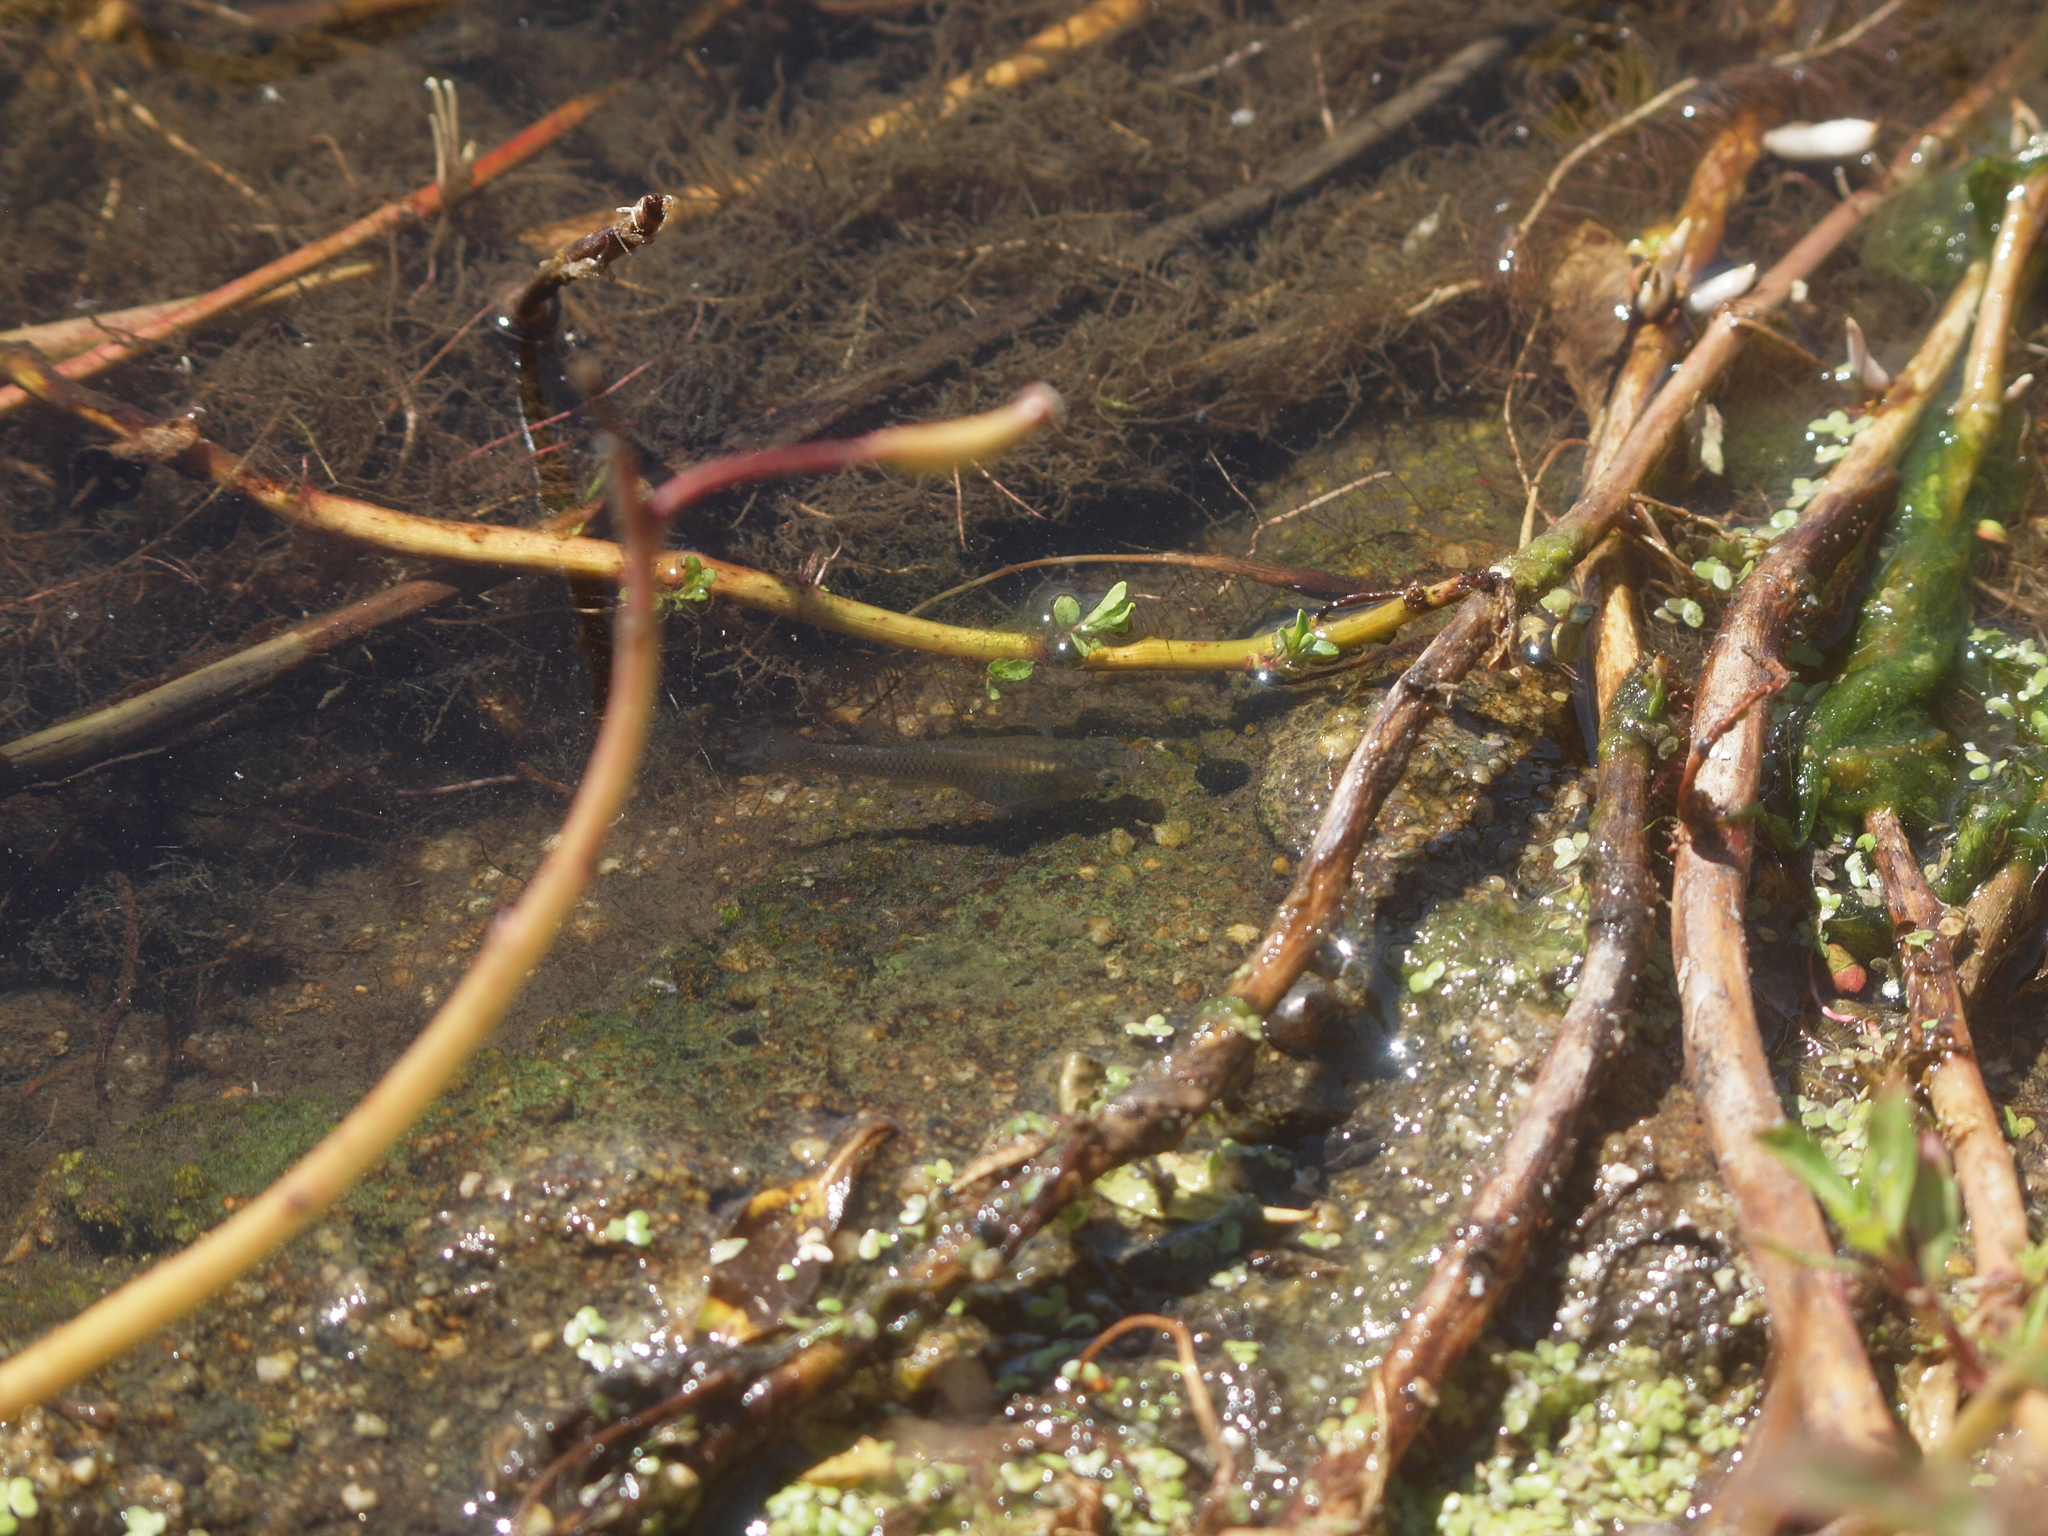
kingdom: Animalia
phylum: Chordata
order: Cyprinodontiformes
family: Poeciliidae
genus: Gambusia
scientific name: Gambusia affinis
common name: Mosquitofish
